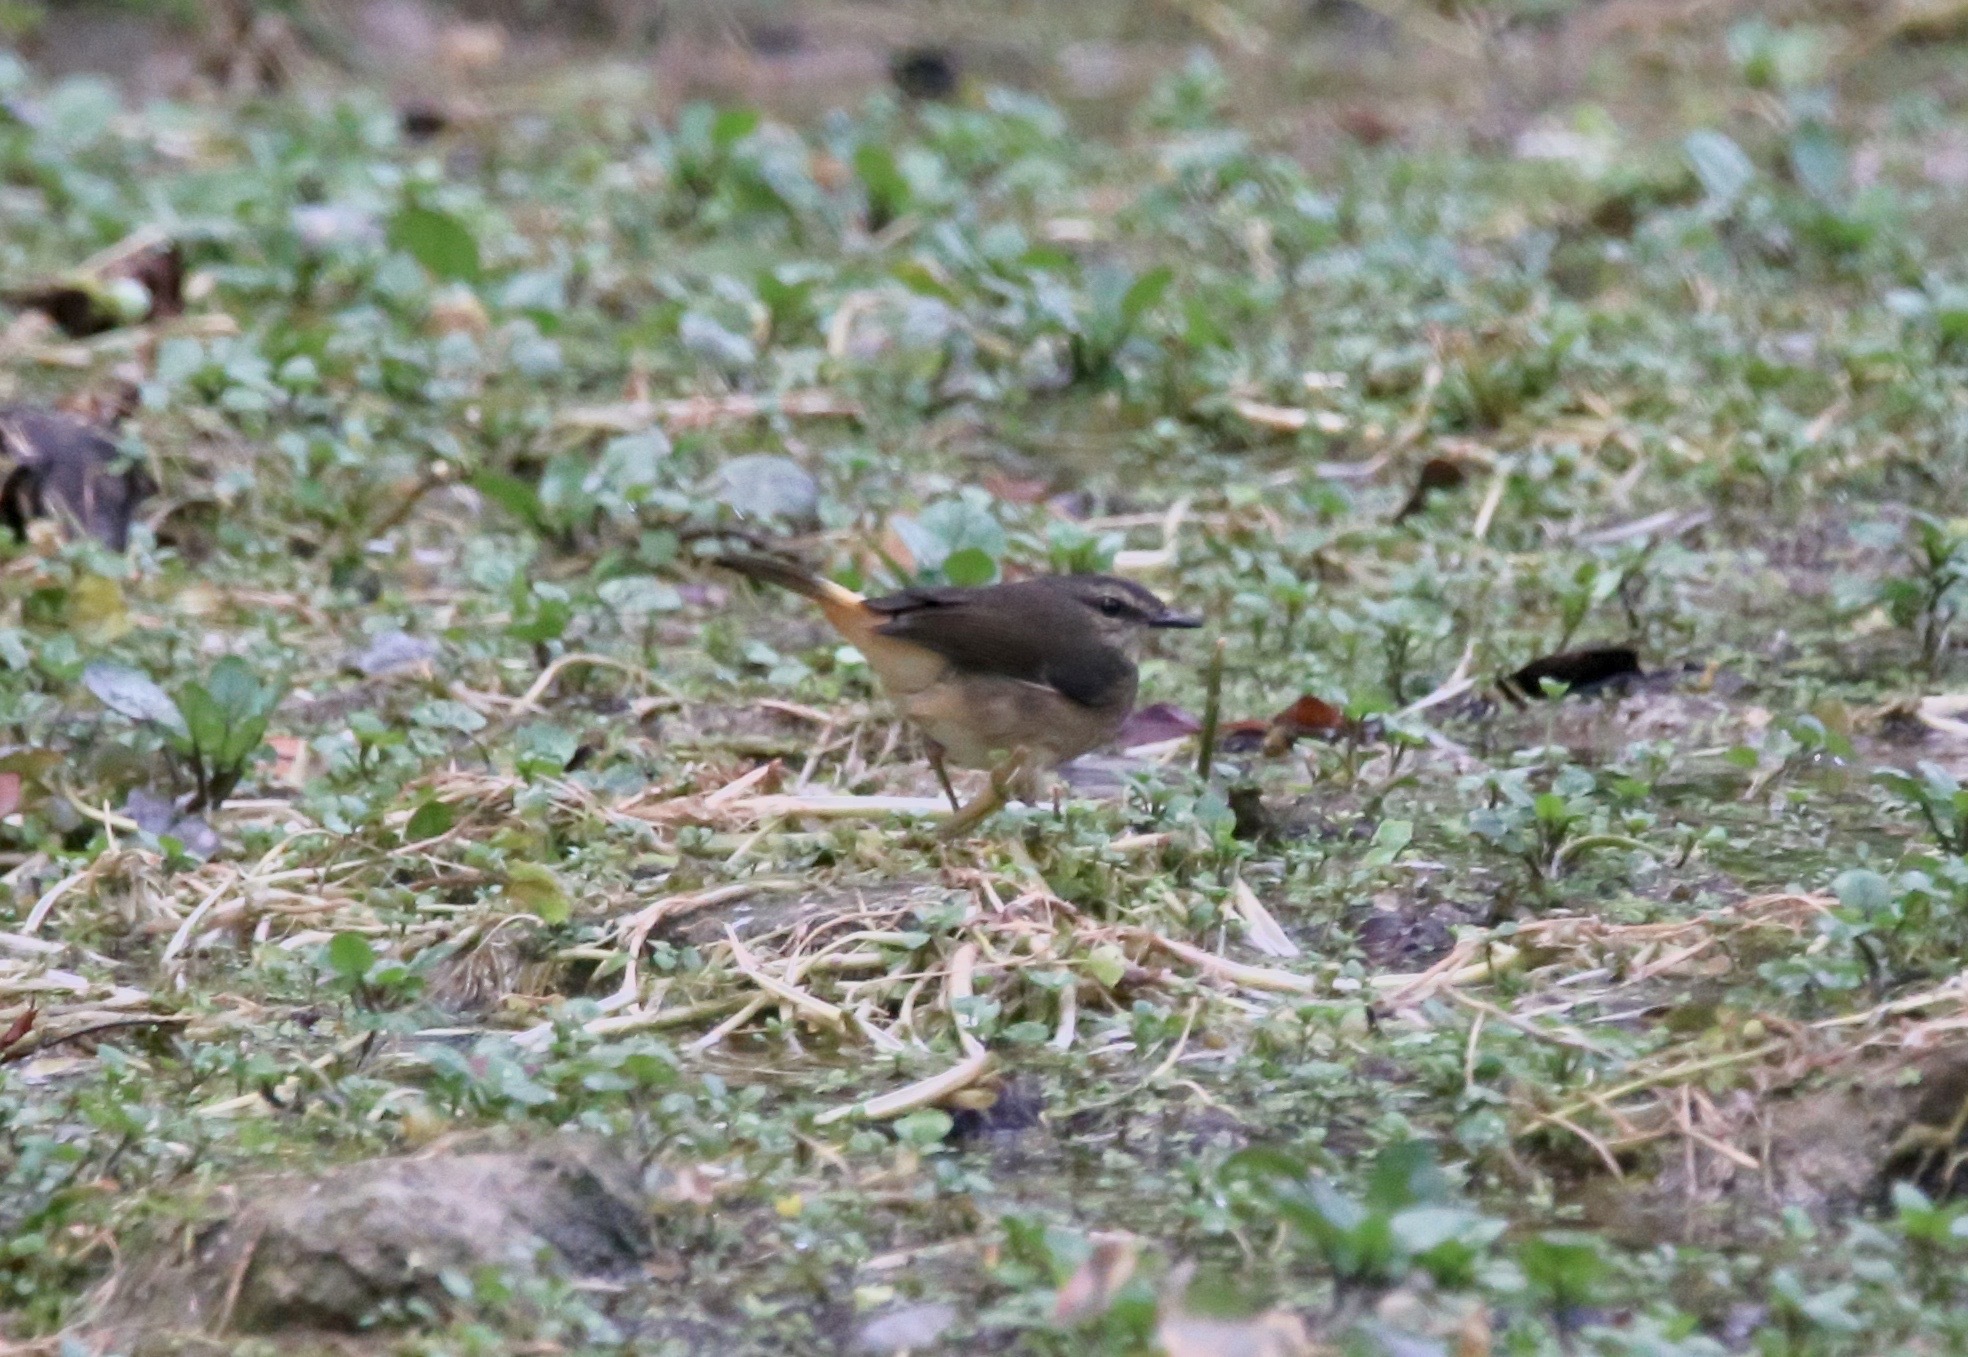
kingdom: Animalia
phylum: Chordata
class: Aves
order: Passeriformes
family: Parulidae
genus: Myiothlypis
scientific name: Myiothlypis fulvicauda
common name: Buff-rumped warbler
